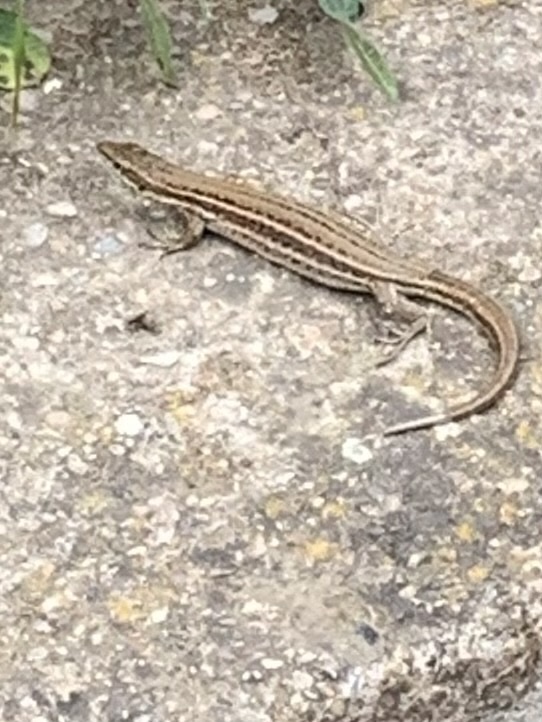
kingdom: Animalia
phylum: Chordata
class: Squamata
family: Lacertidae
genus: Podarcis
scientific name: Podarcis liolepis
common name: Catalonian wall lizard
